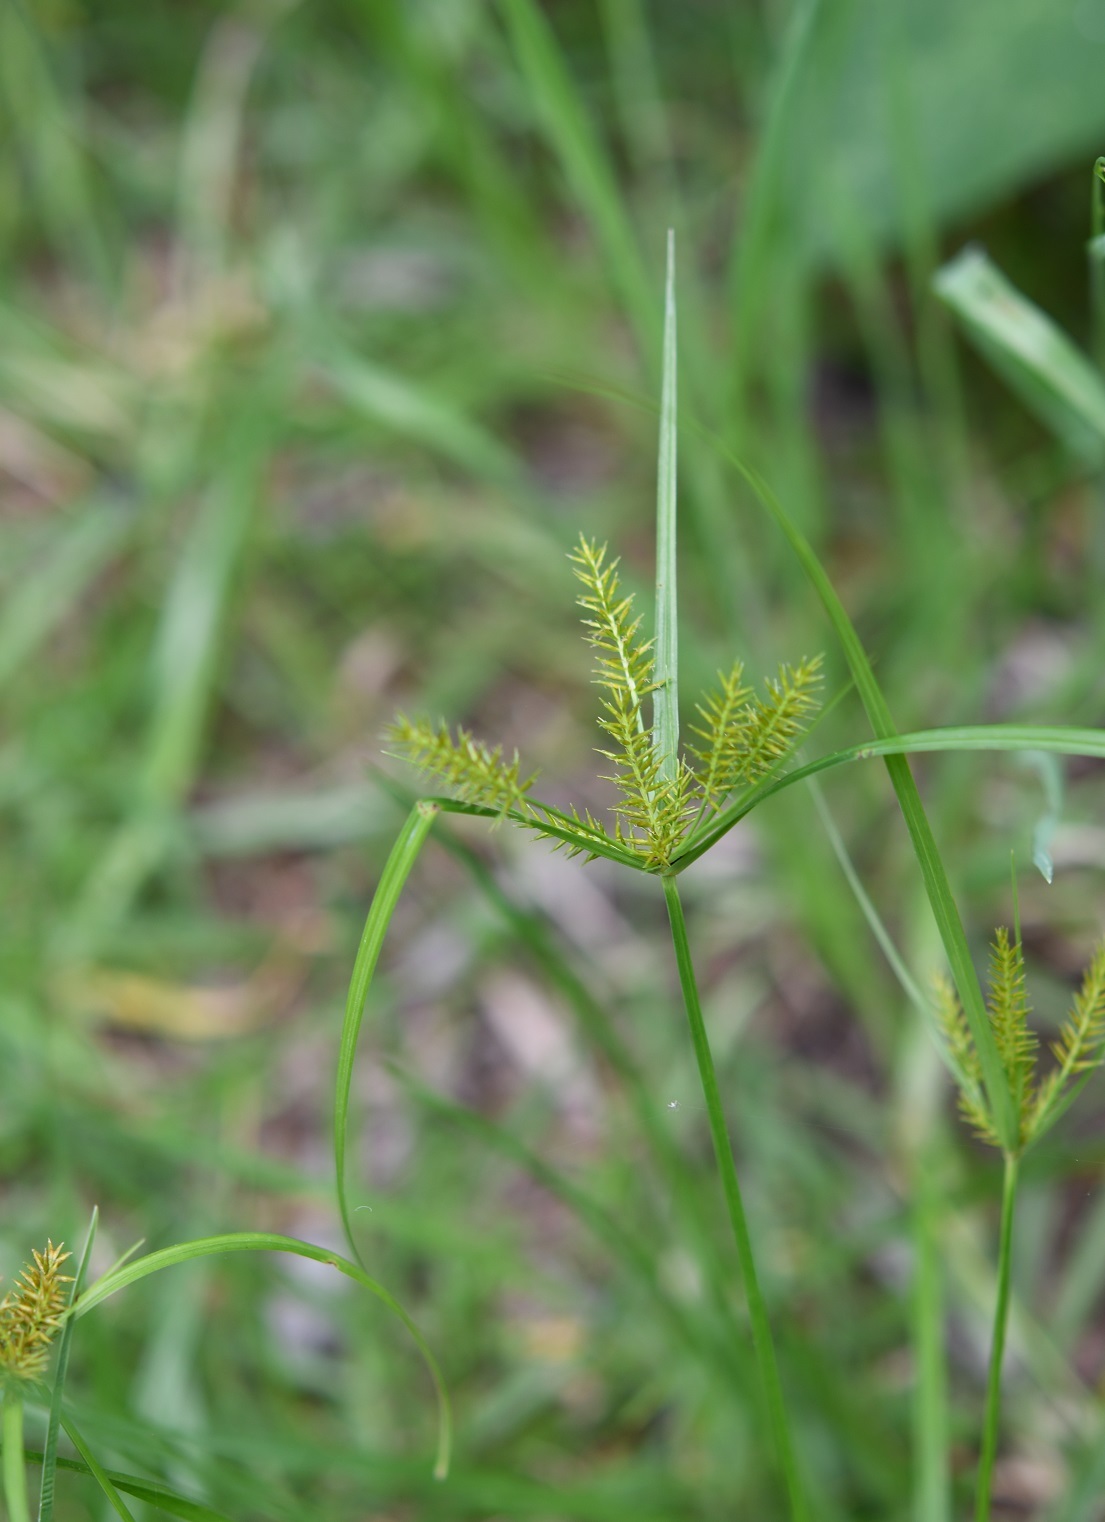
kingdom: Plantae
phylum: Tracheophyta
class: Liliopsida
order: Poales
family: Cyperaceae
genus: Cyperus
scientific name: Cyperus hermaphroditus
